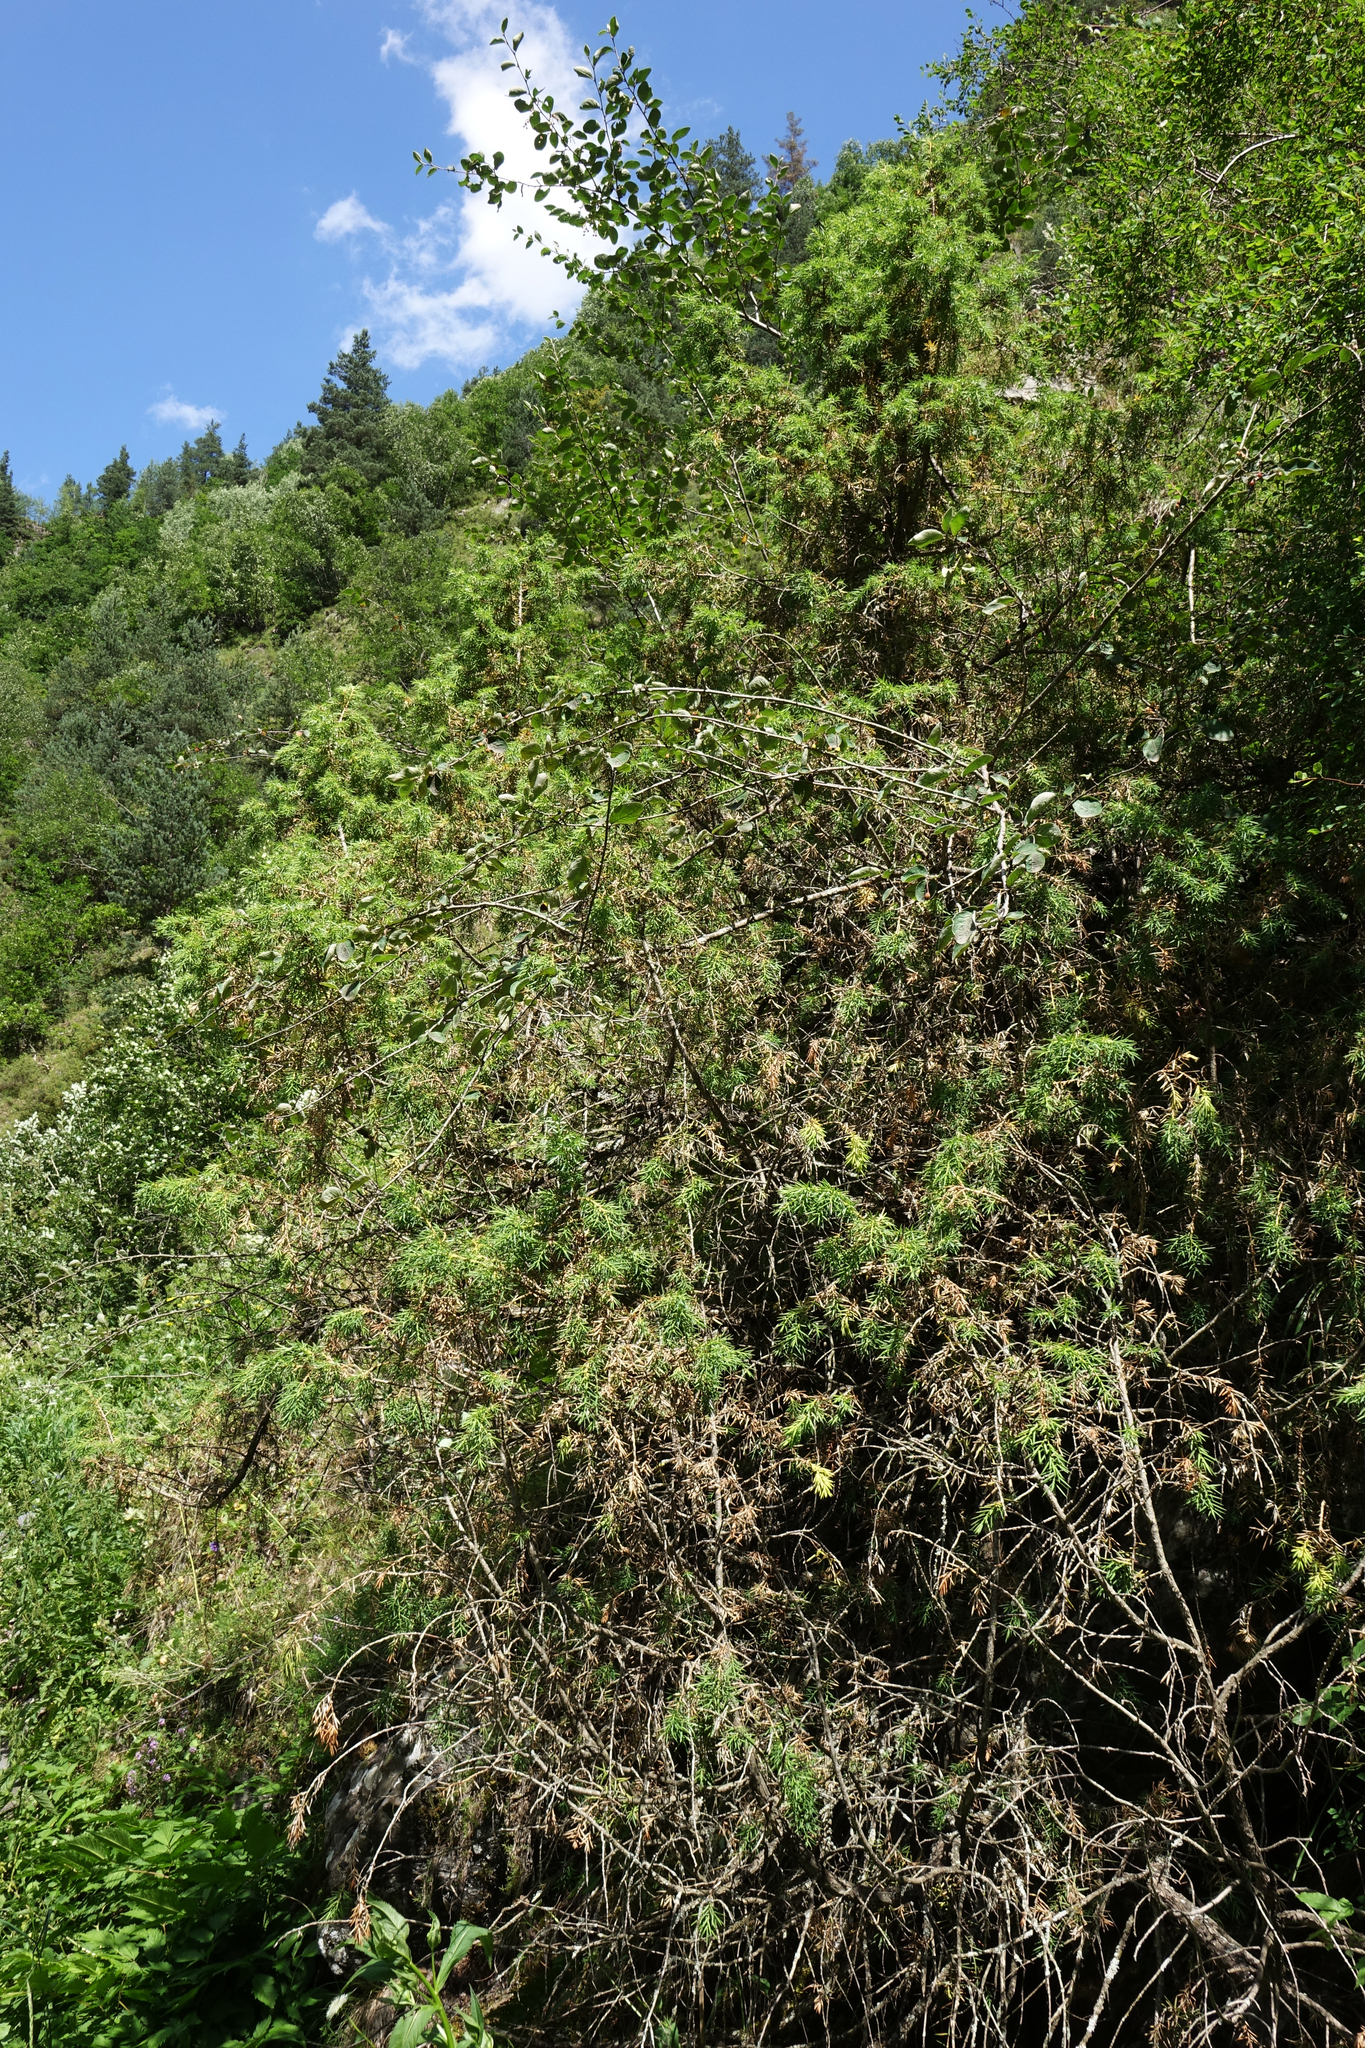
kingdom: Plantae
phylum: Tracheophyta
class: Pinopsida
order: Pinales
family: Cupressaceae
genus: Juniperus
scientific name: Juniperus communis
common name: Common juniper
